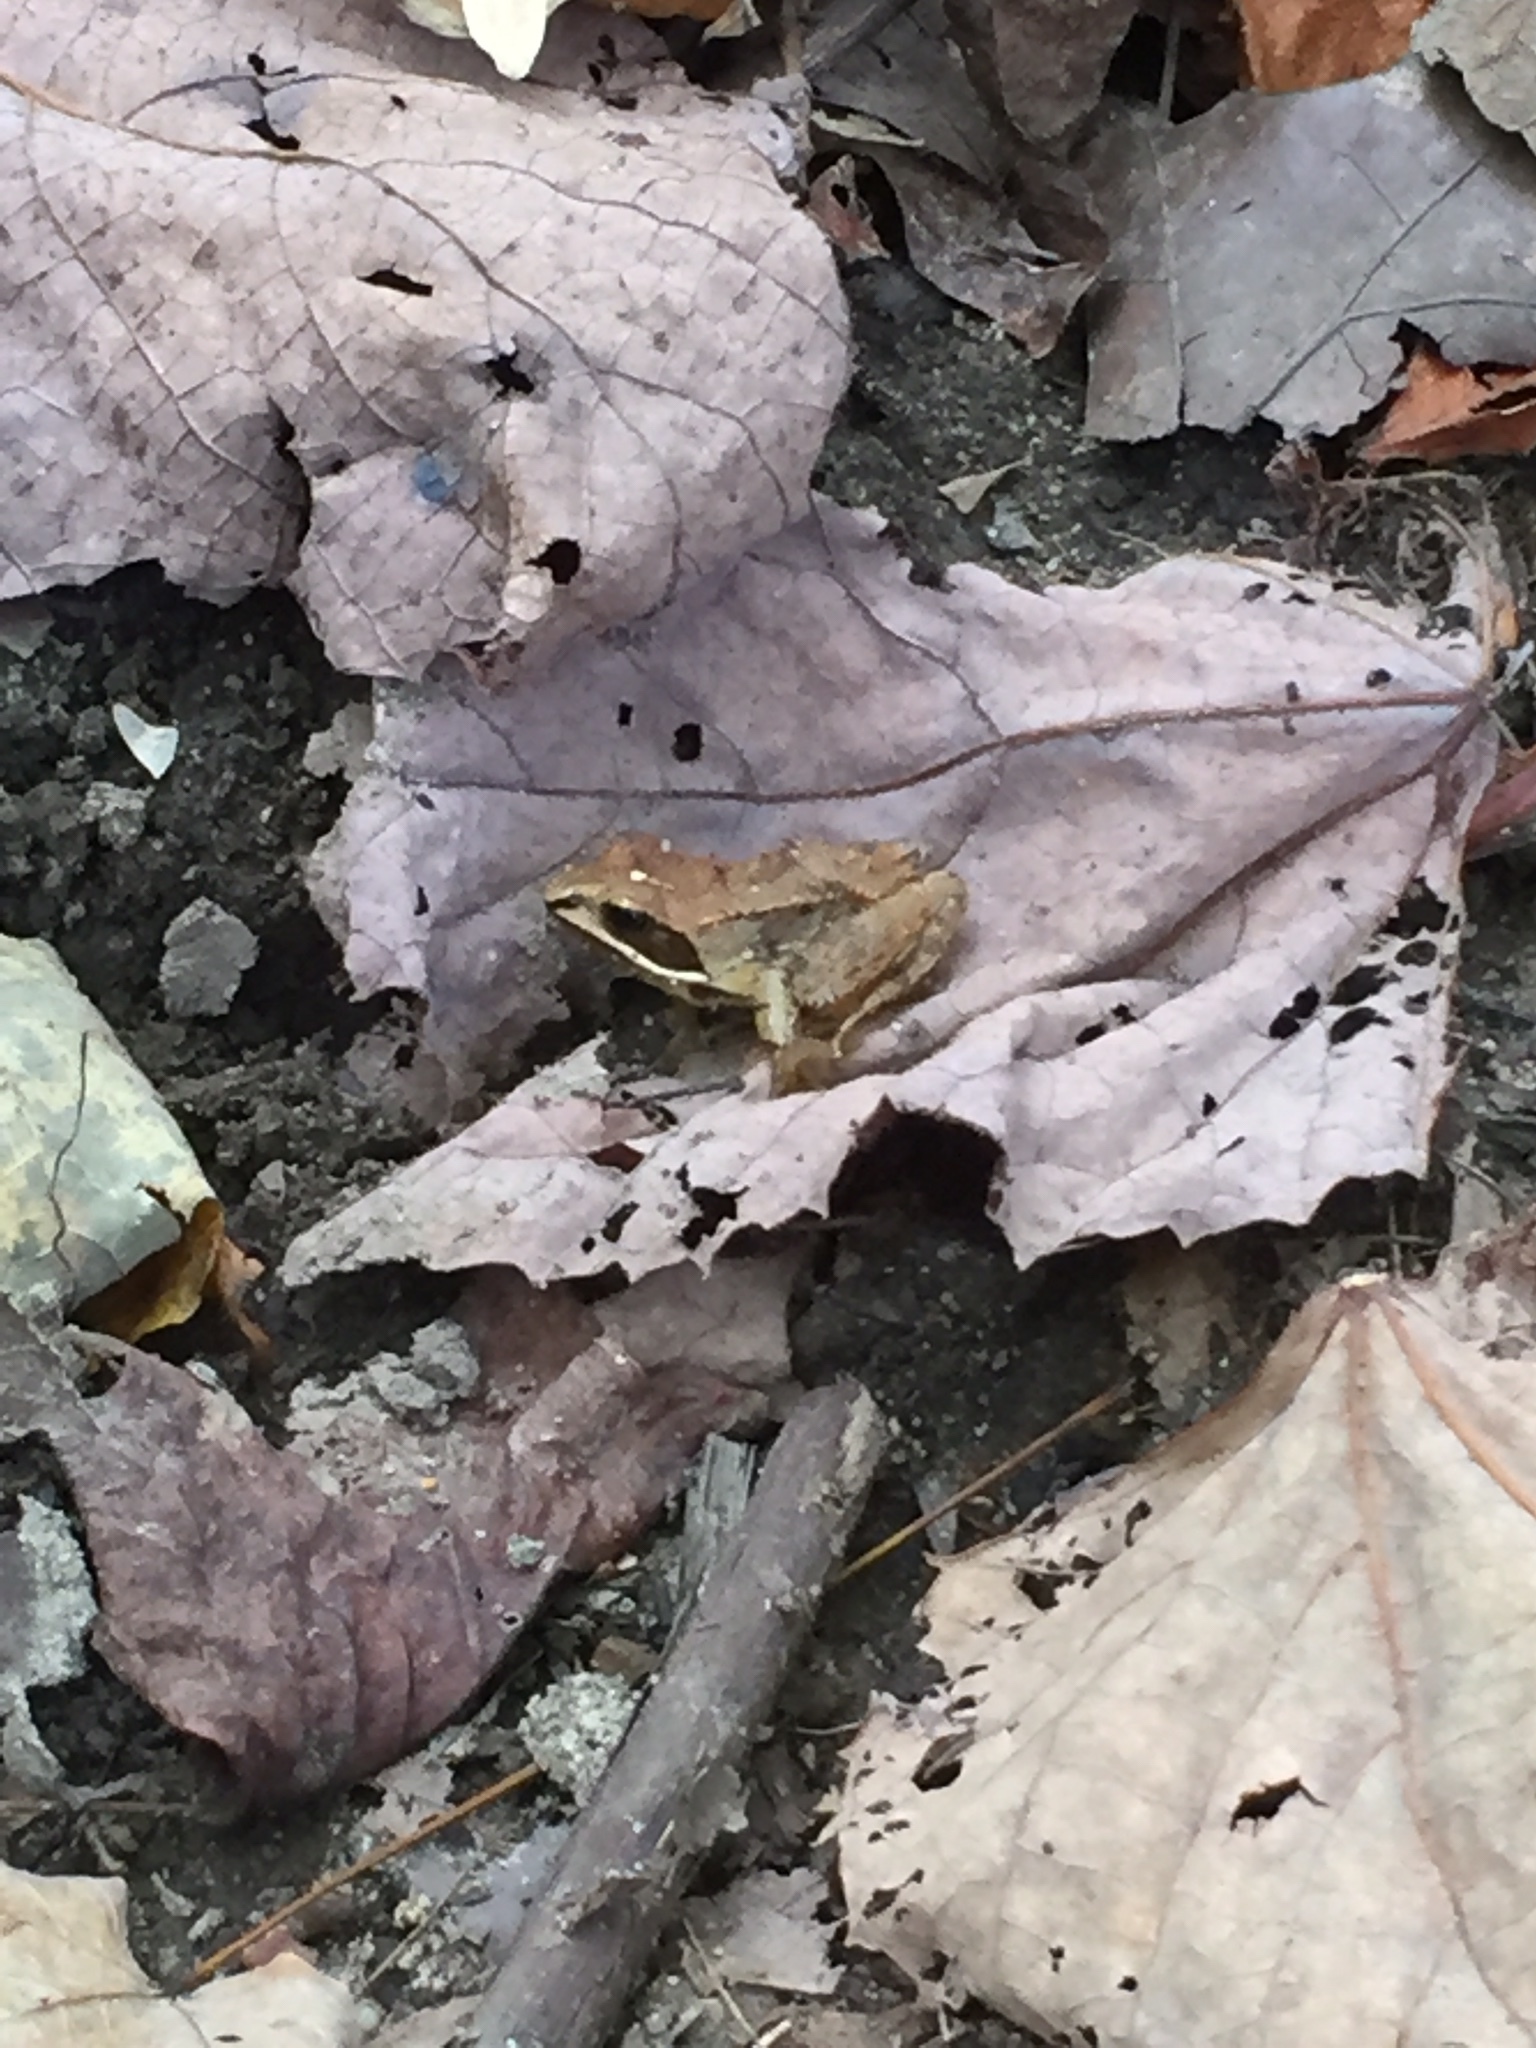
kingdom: Animalia
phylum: Chordata
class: Amphibia
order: Anura
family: Ranidae
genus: Lithobates
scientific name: Lithobates sylvaticus
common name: Wood frog
